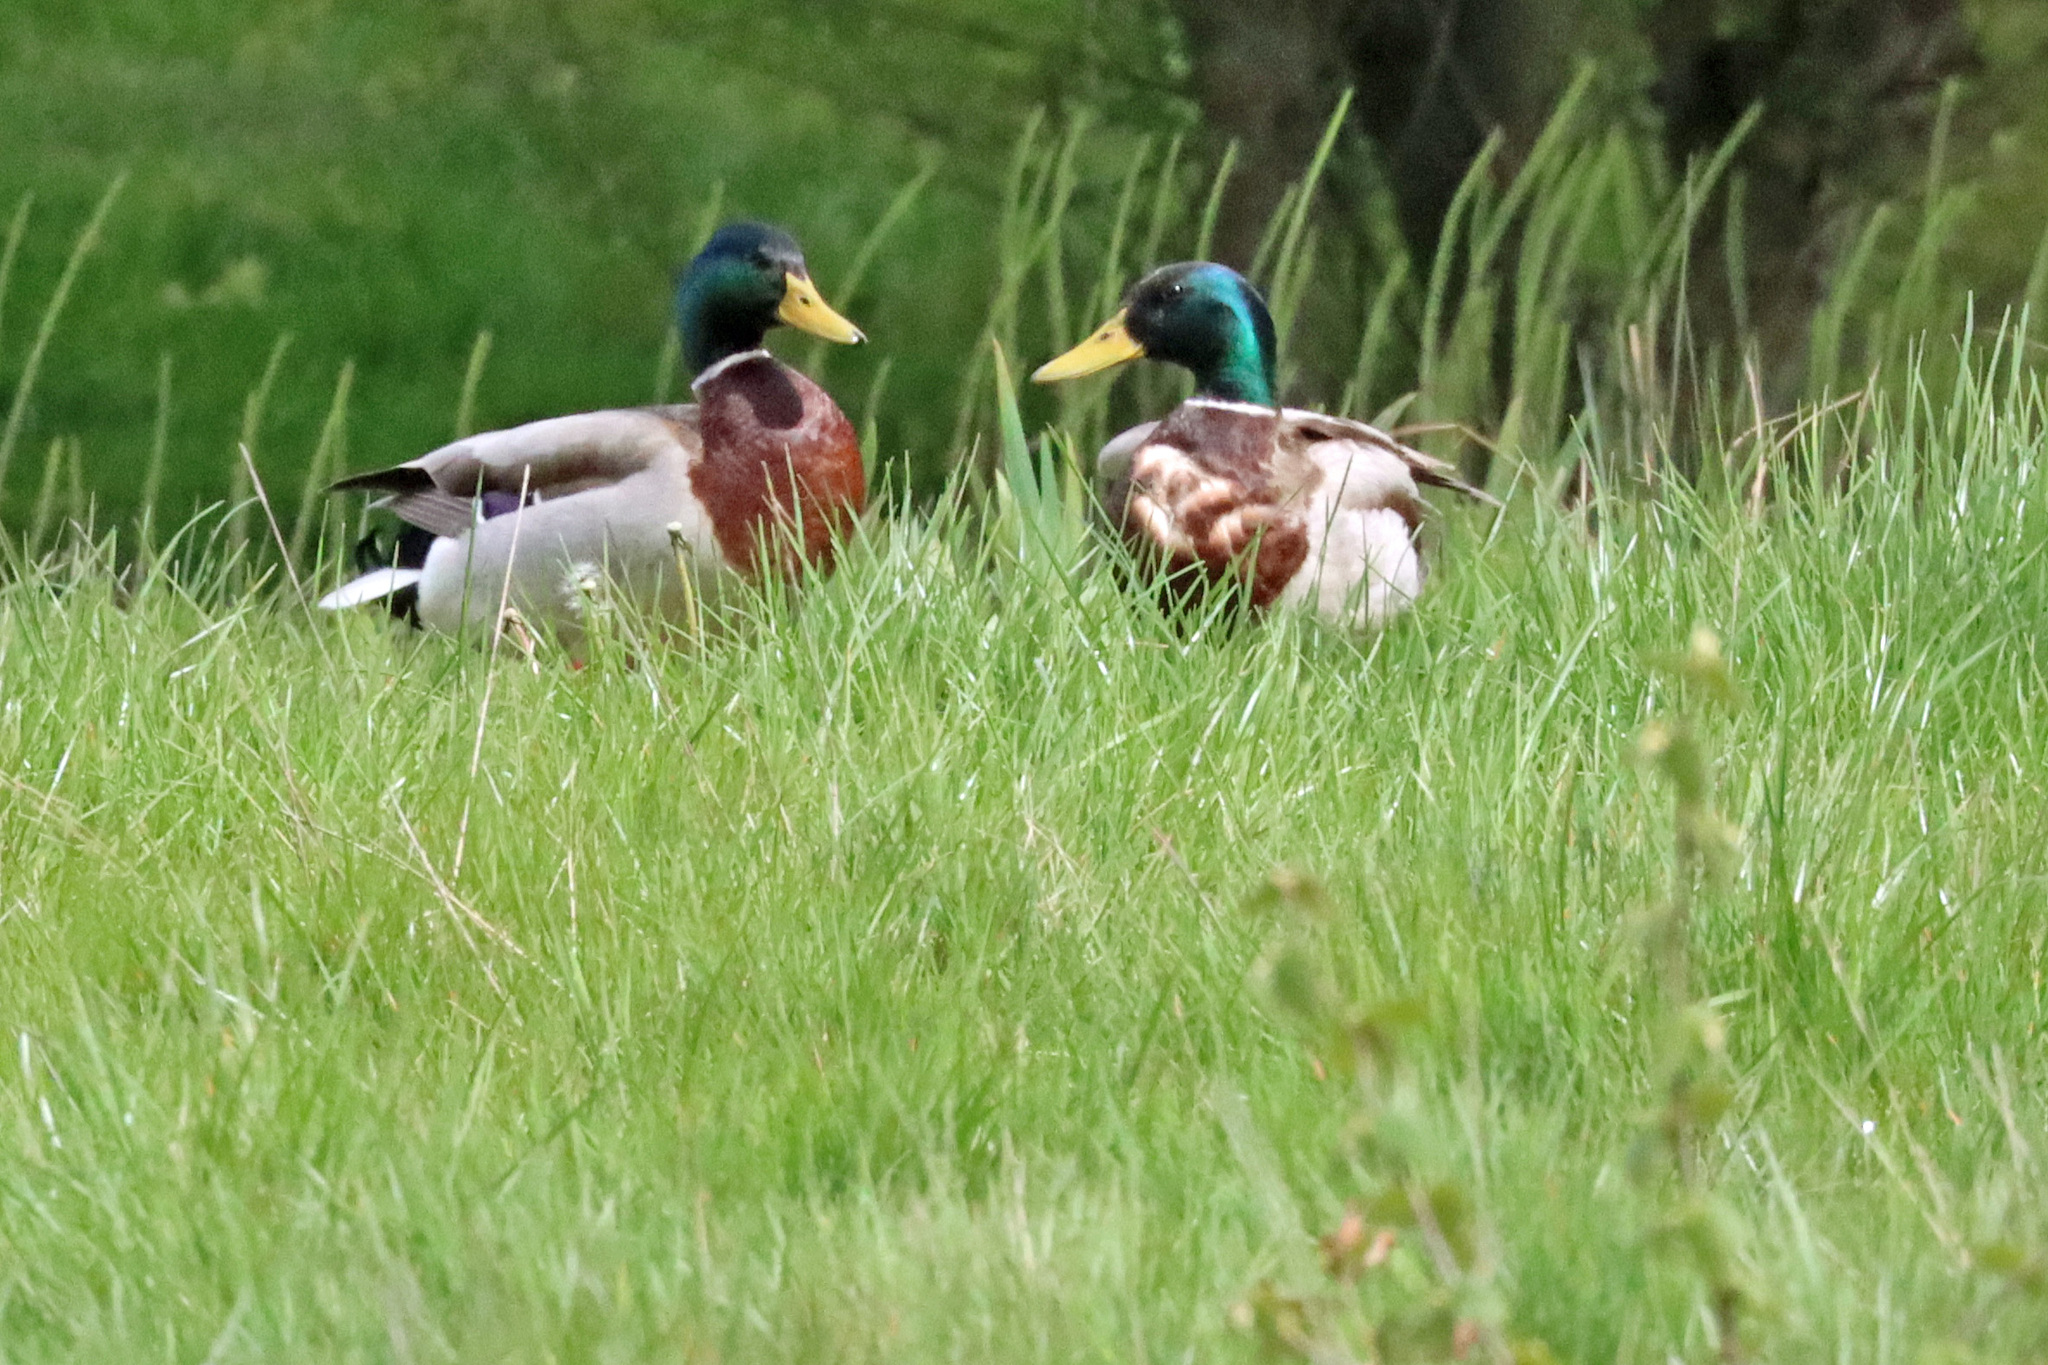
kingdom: Animalia
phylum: Chordata
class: Aves
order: Anseriformes
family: Anatidae
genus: Anas
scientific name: Anas platyrhynchos
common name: Mallard
